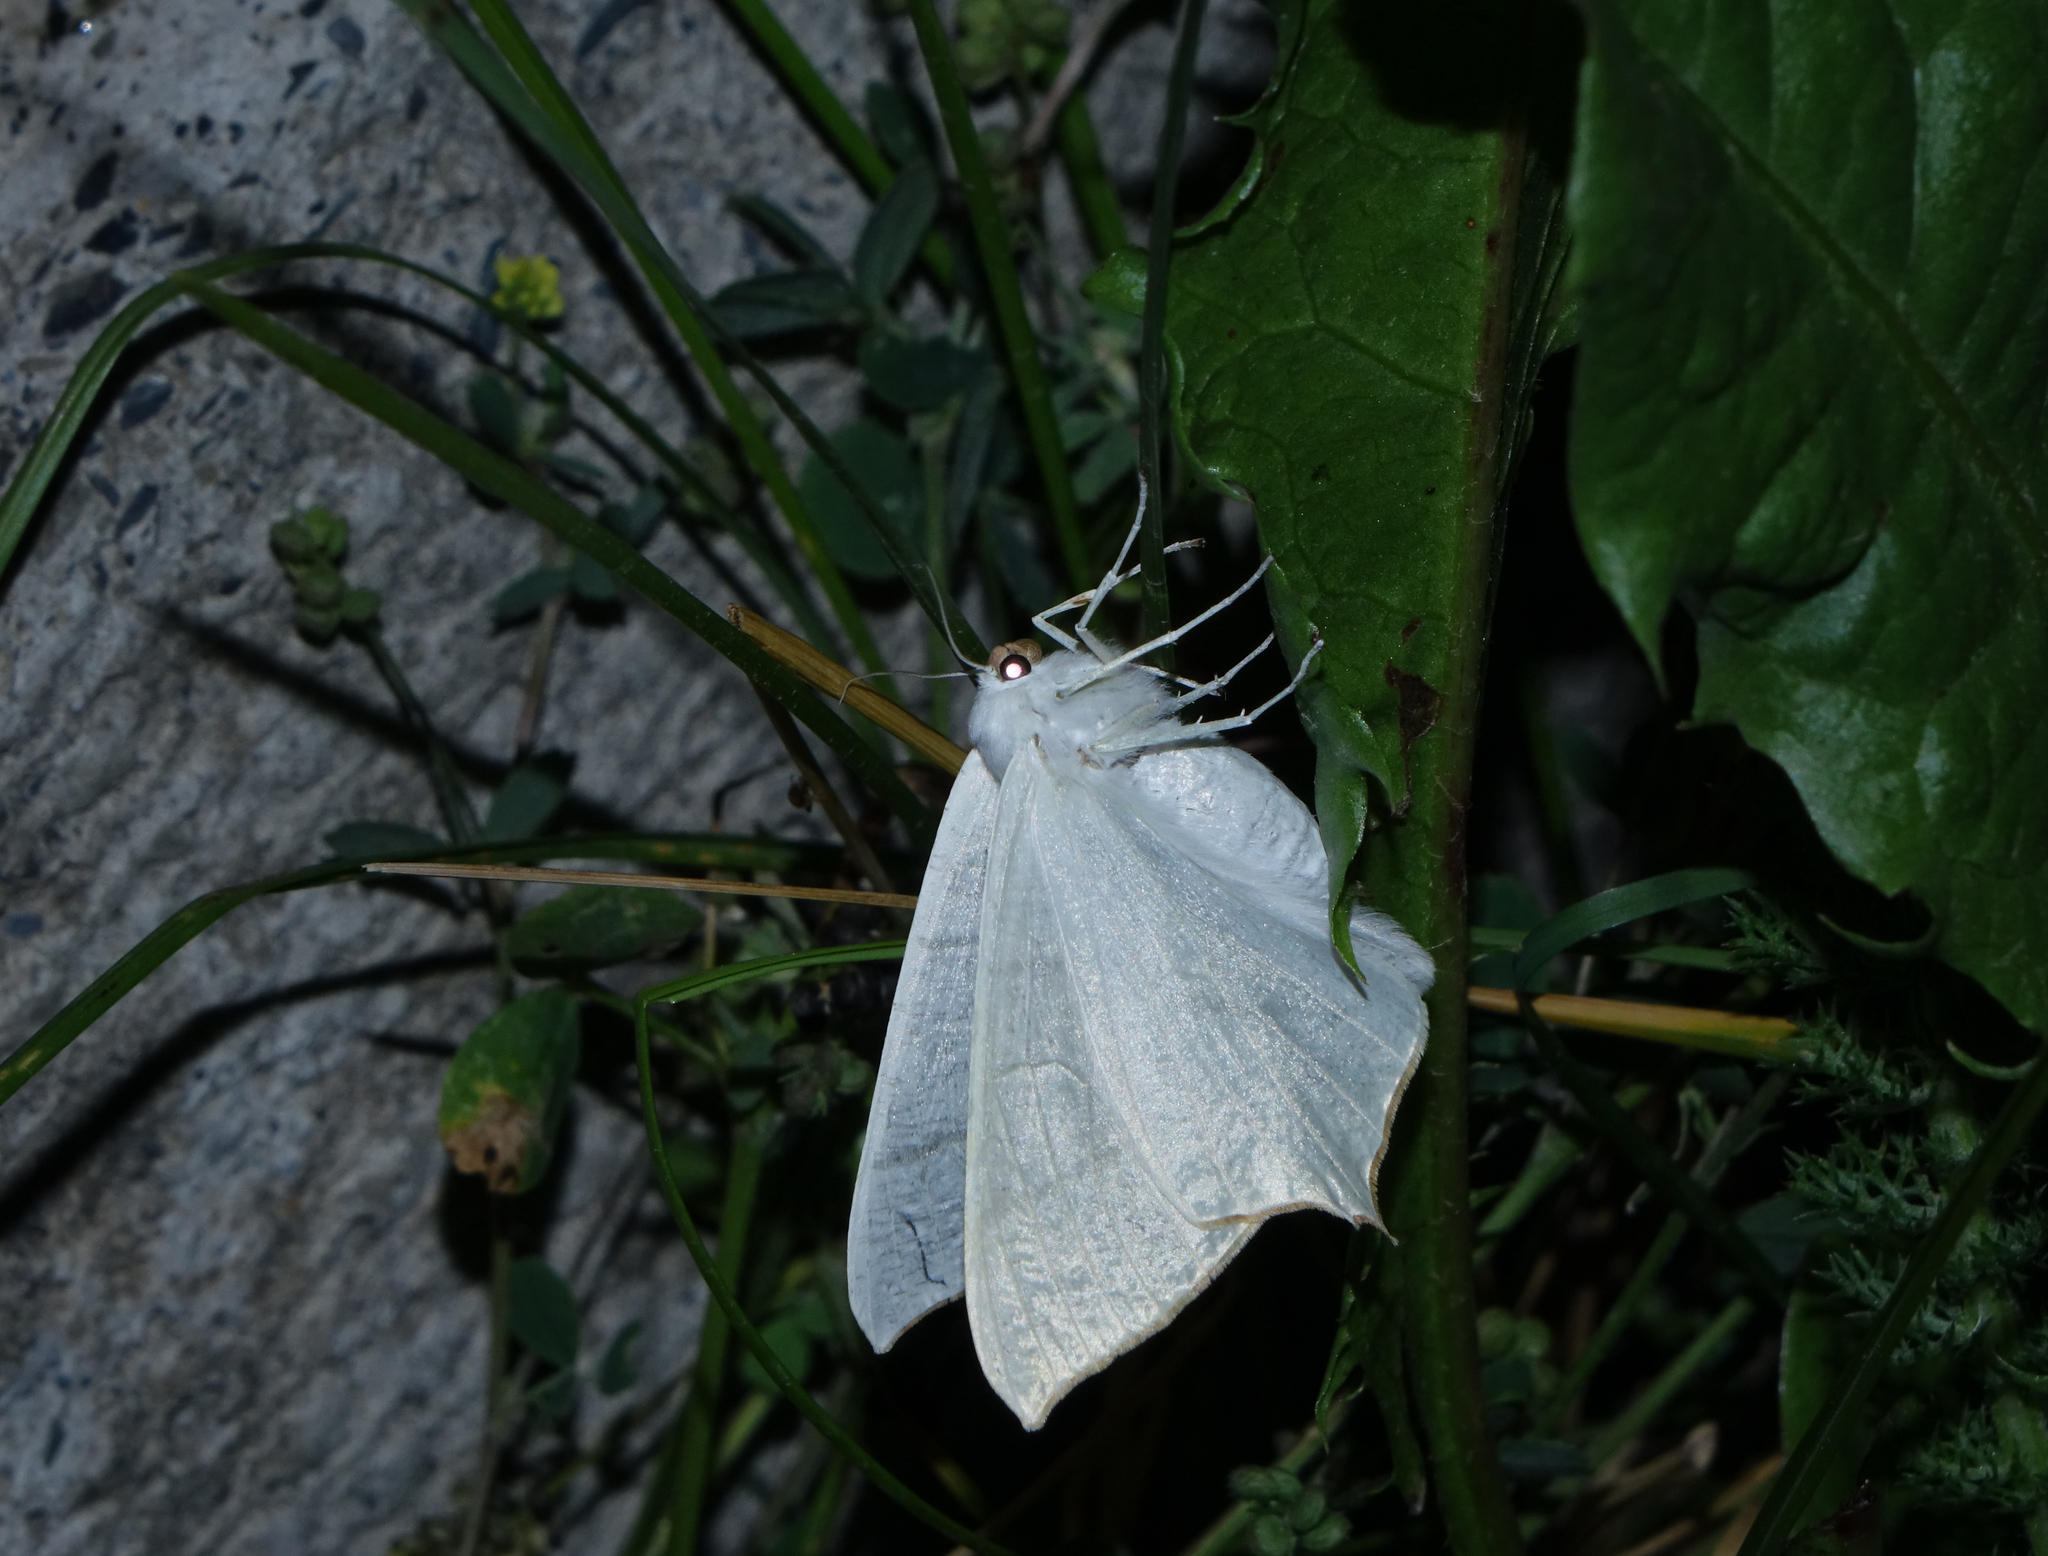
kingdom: Animalia
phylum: Arthropoda
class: Insecta
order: Lepidoptera
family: Geometridae
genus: Ourapteryx
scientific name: Ourapteryx
